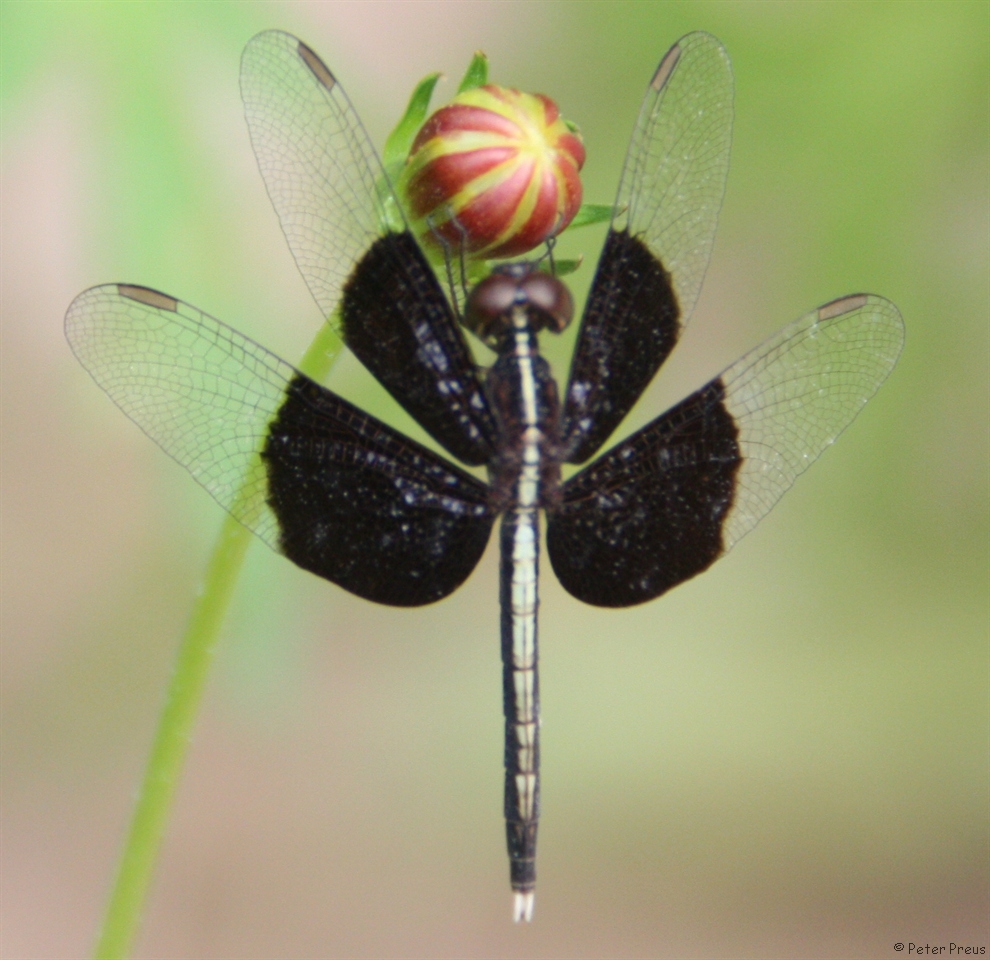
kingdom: Animalia
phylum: Arthropoda
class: Insecta
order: Odonata
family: Libellulidae
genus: Neurothemis
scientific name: Neurothemis tullia
